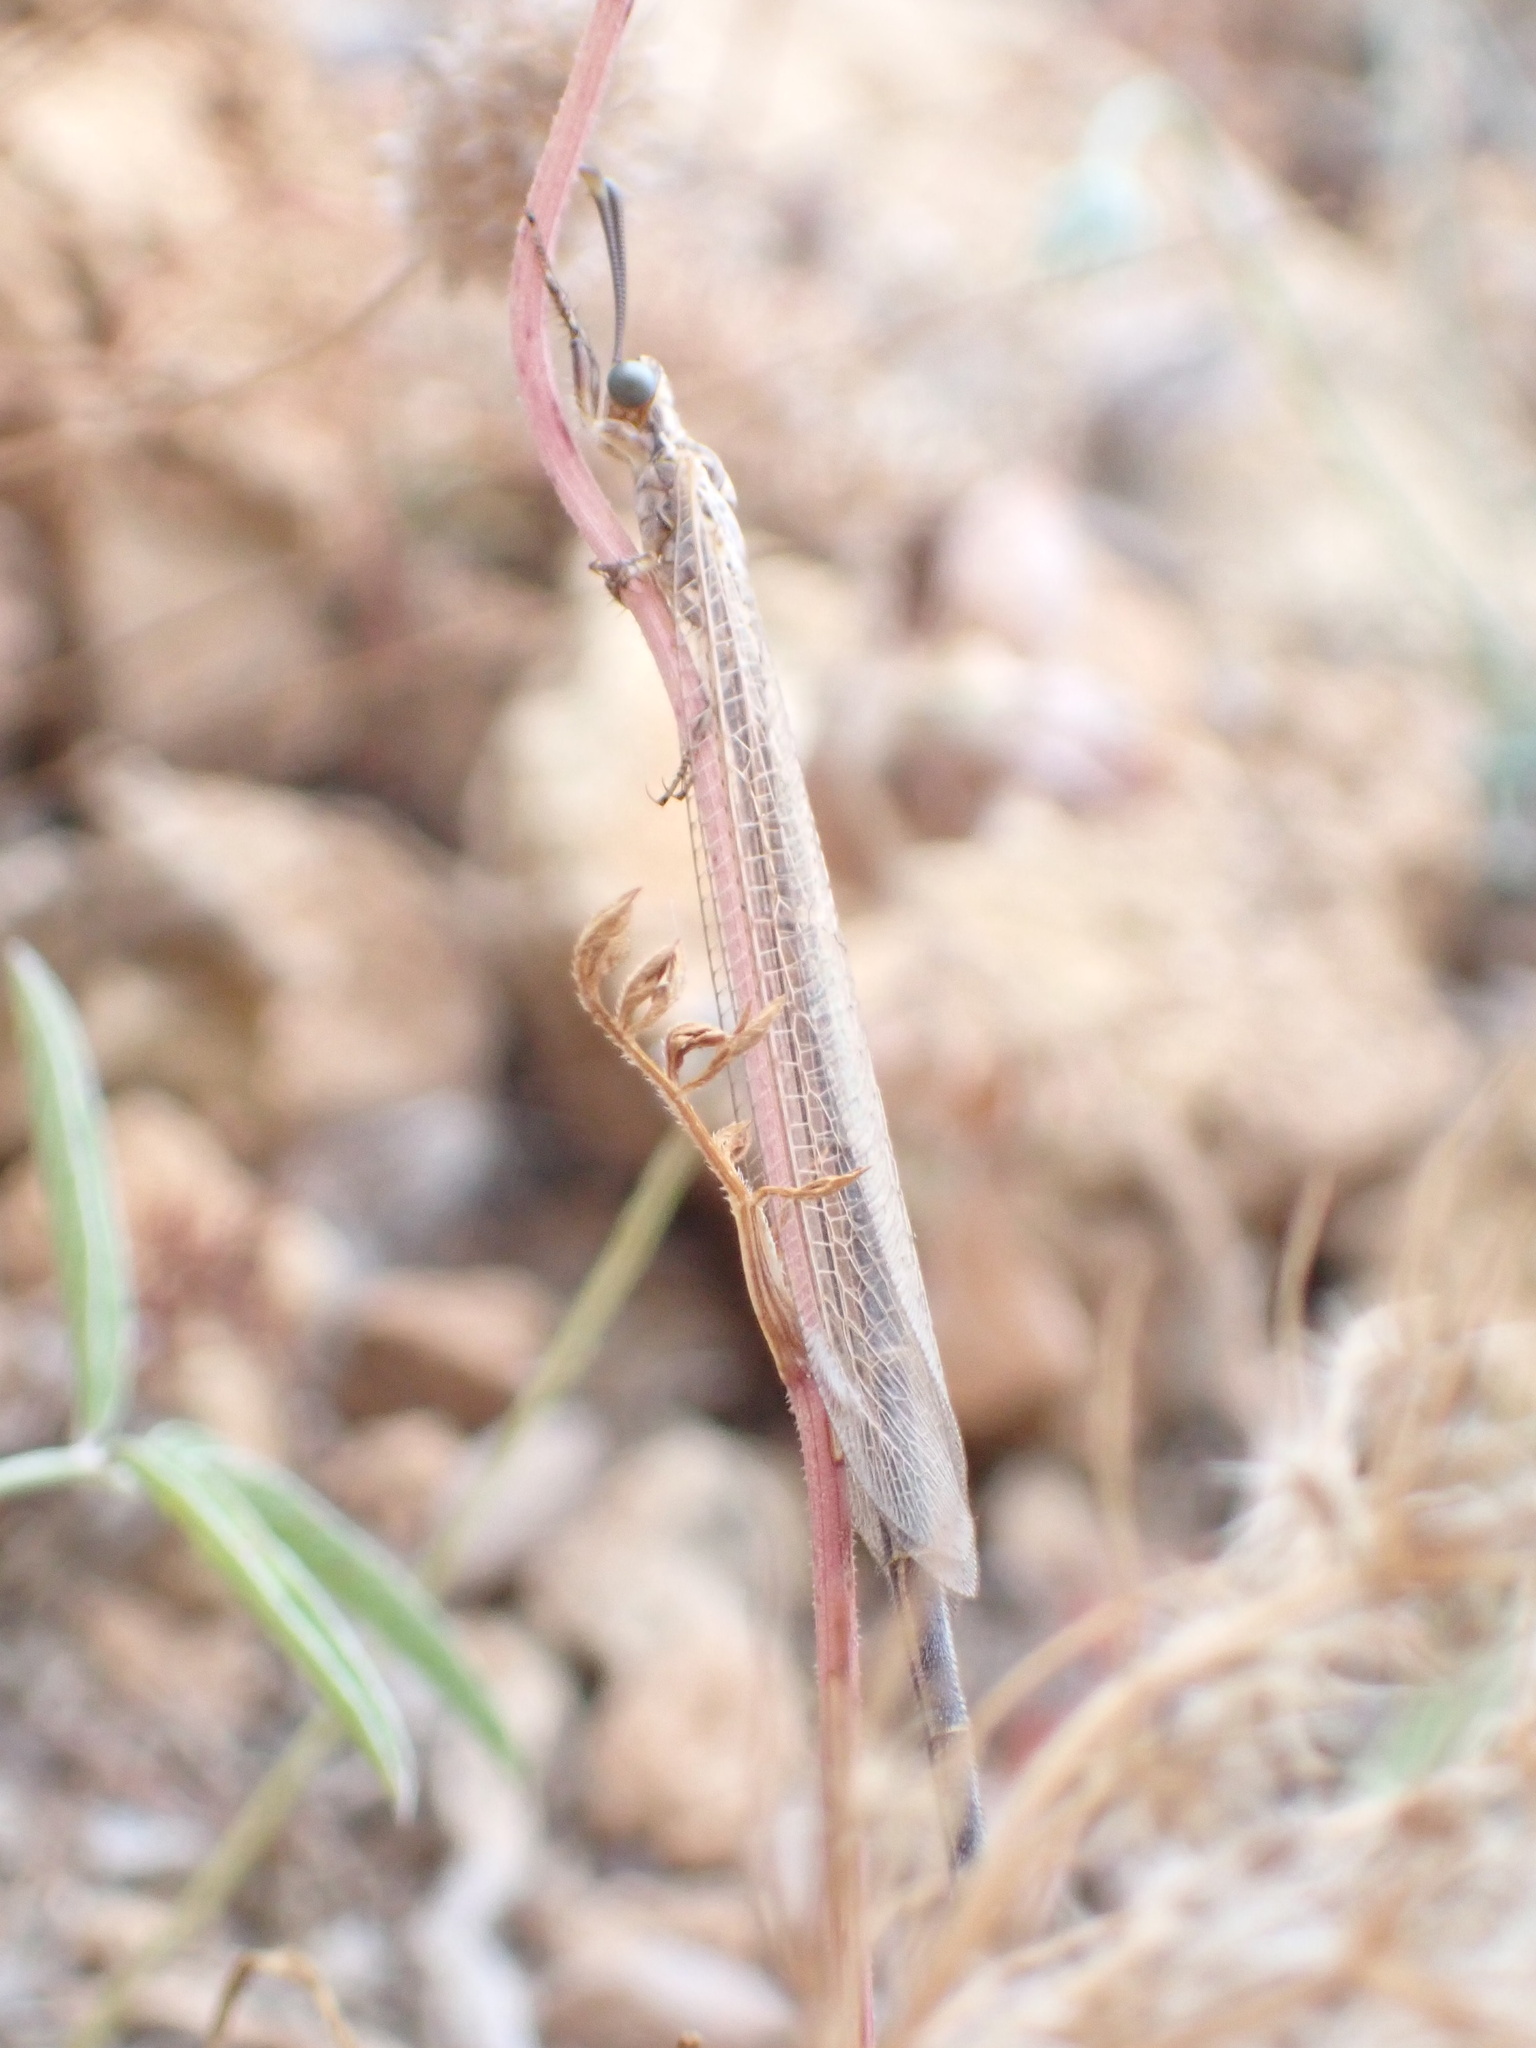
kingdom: Animalia
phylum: Arthropoda
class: Insecta
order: Neuroptera
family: Myrmeleontidae
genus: Creoleon
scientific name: Creoleon plumbeus
